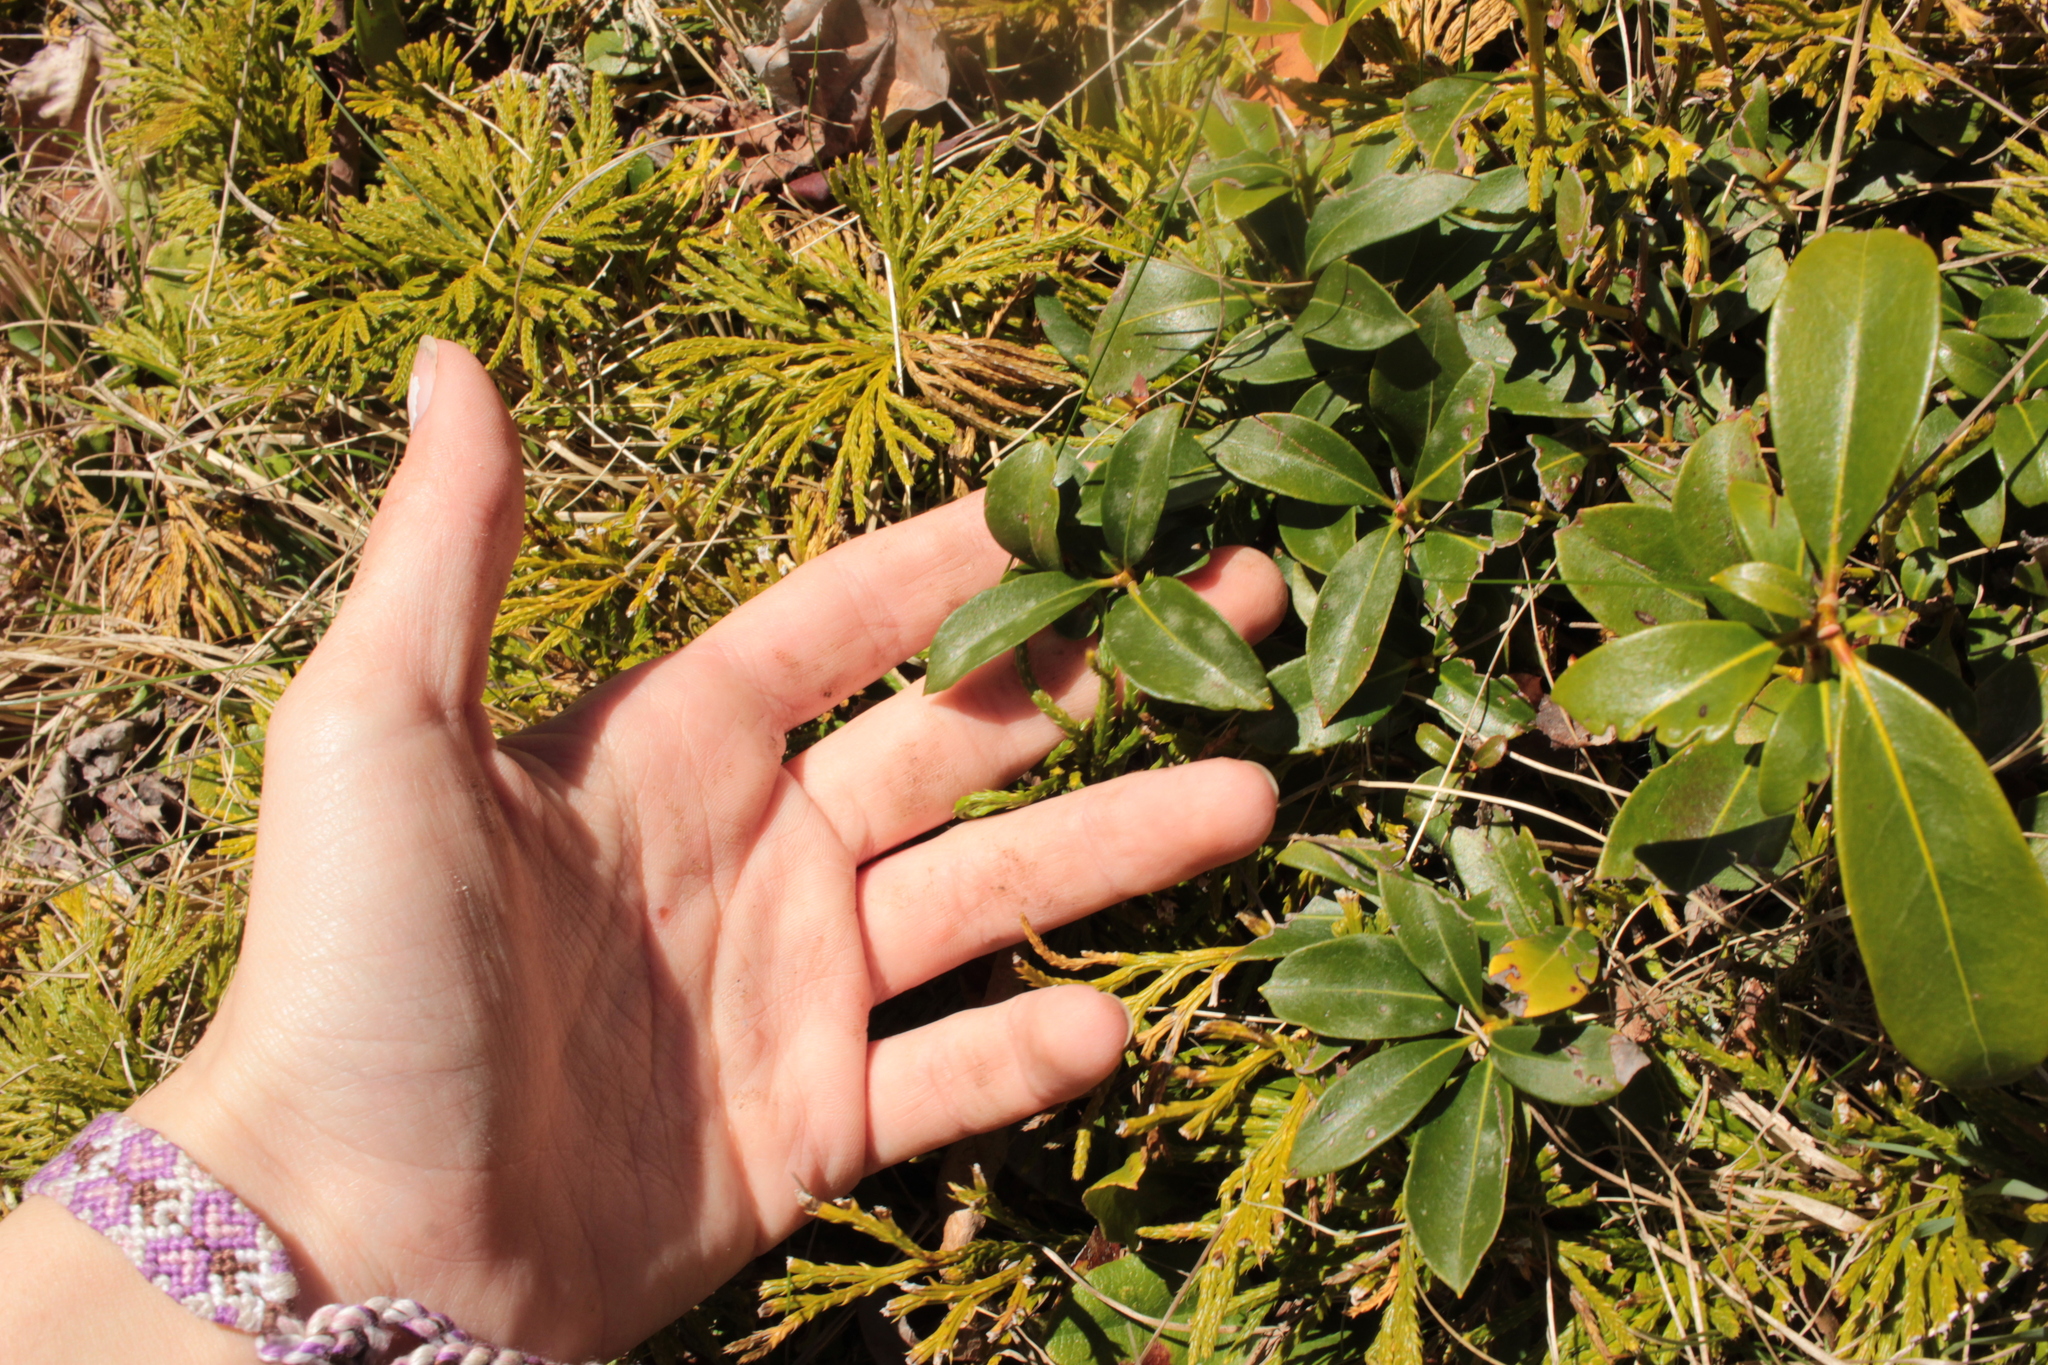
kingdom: Plantae
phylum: Tracheophyta
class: Magnoliopsida
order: Ericales
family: Ericaceae
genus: Kalmia
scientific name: Kalmia latifolia
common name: Mountain-laurel
